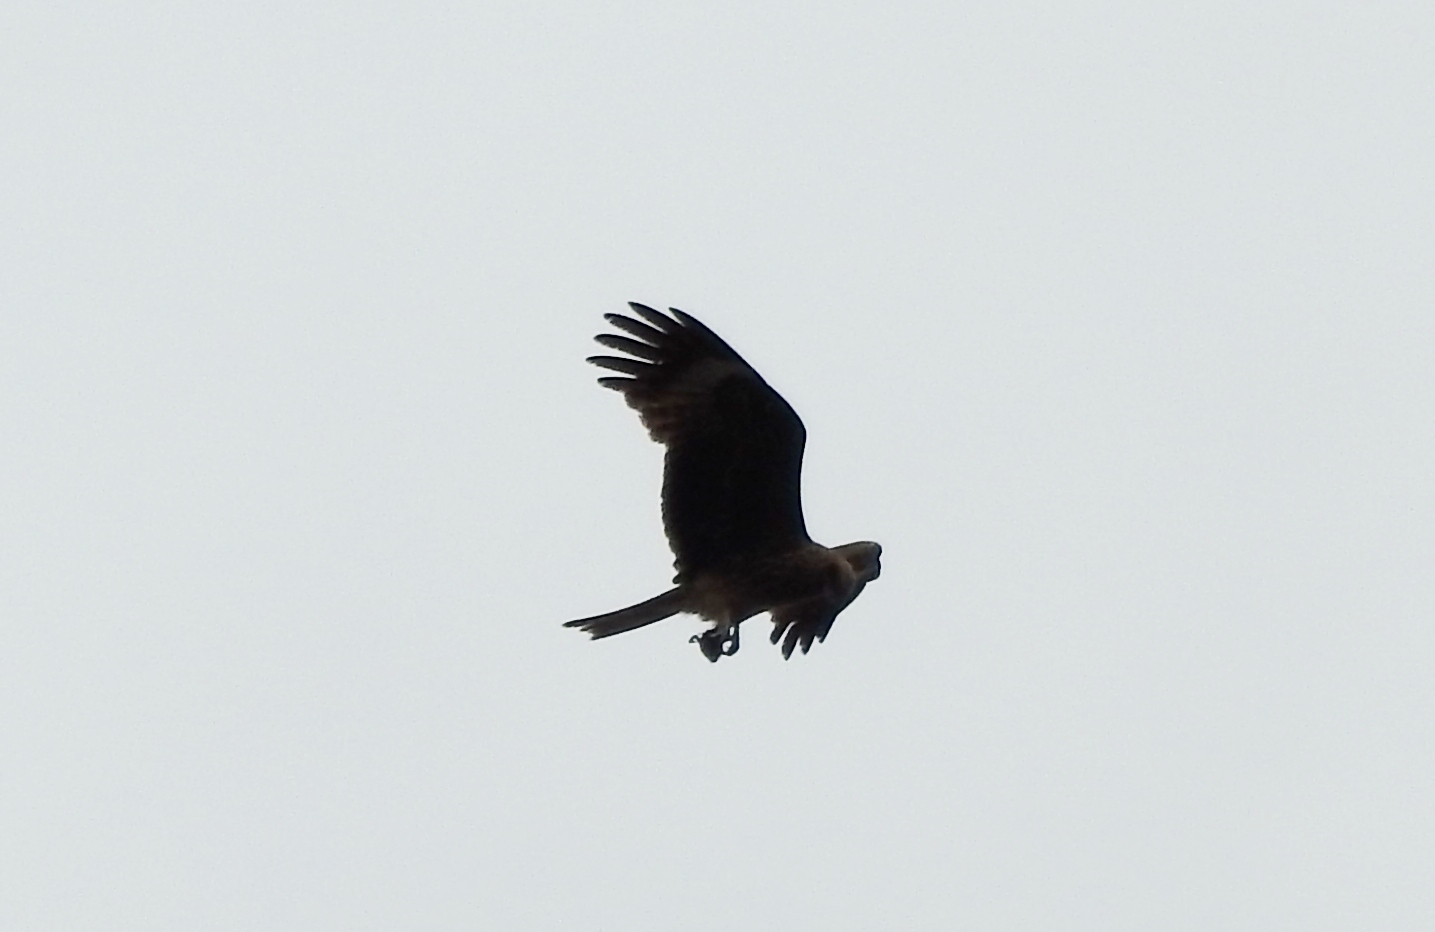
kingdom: Animalia
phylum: Chordata
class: Aves
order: Accipitriformes
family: Accipitridae
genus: Milvus
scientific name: Milvus migrans
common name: Black kite
